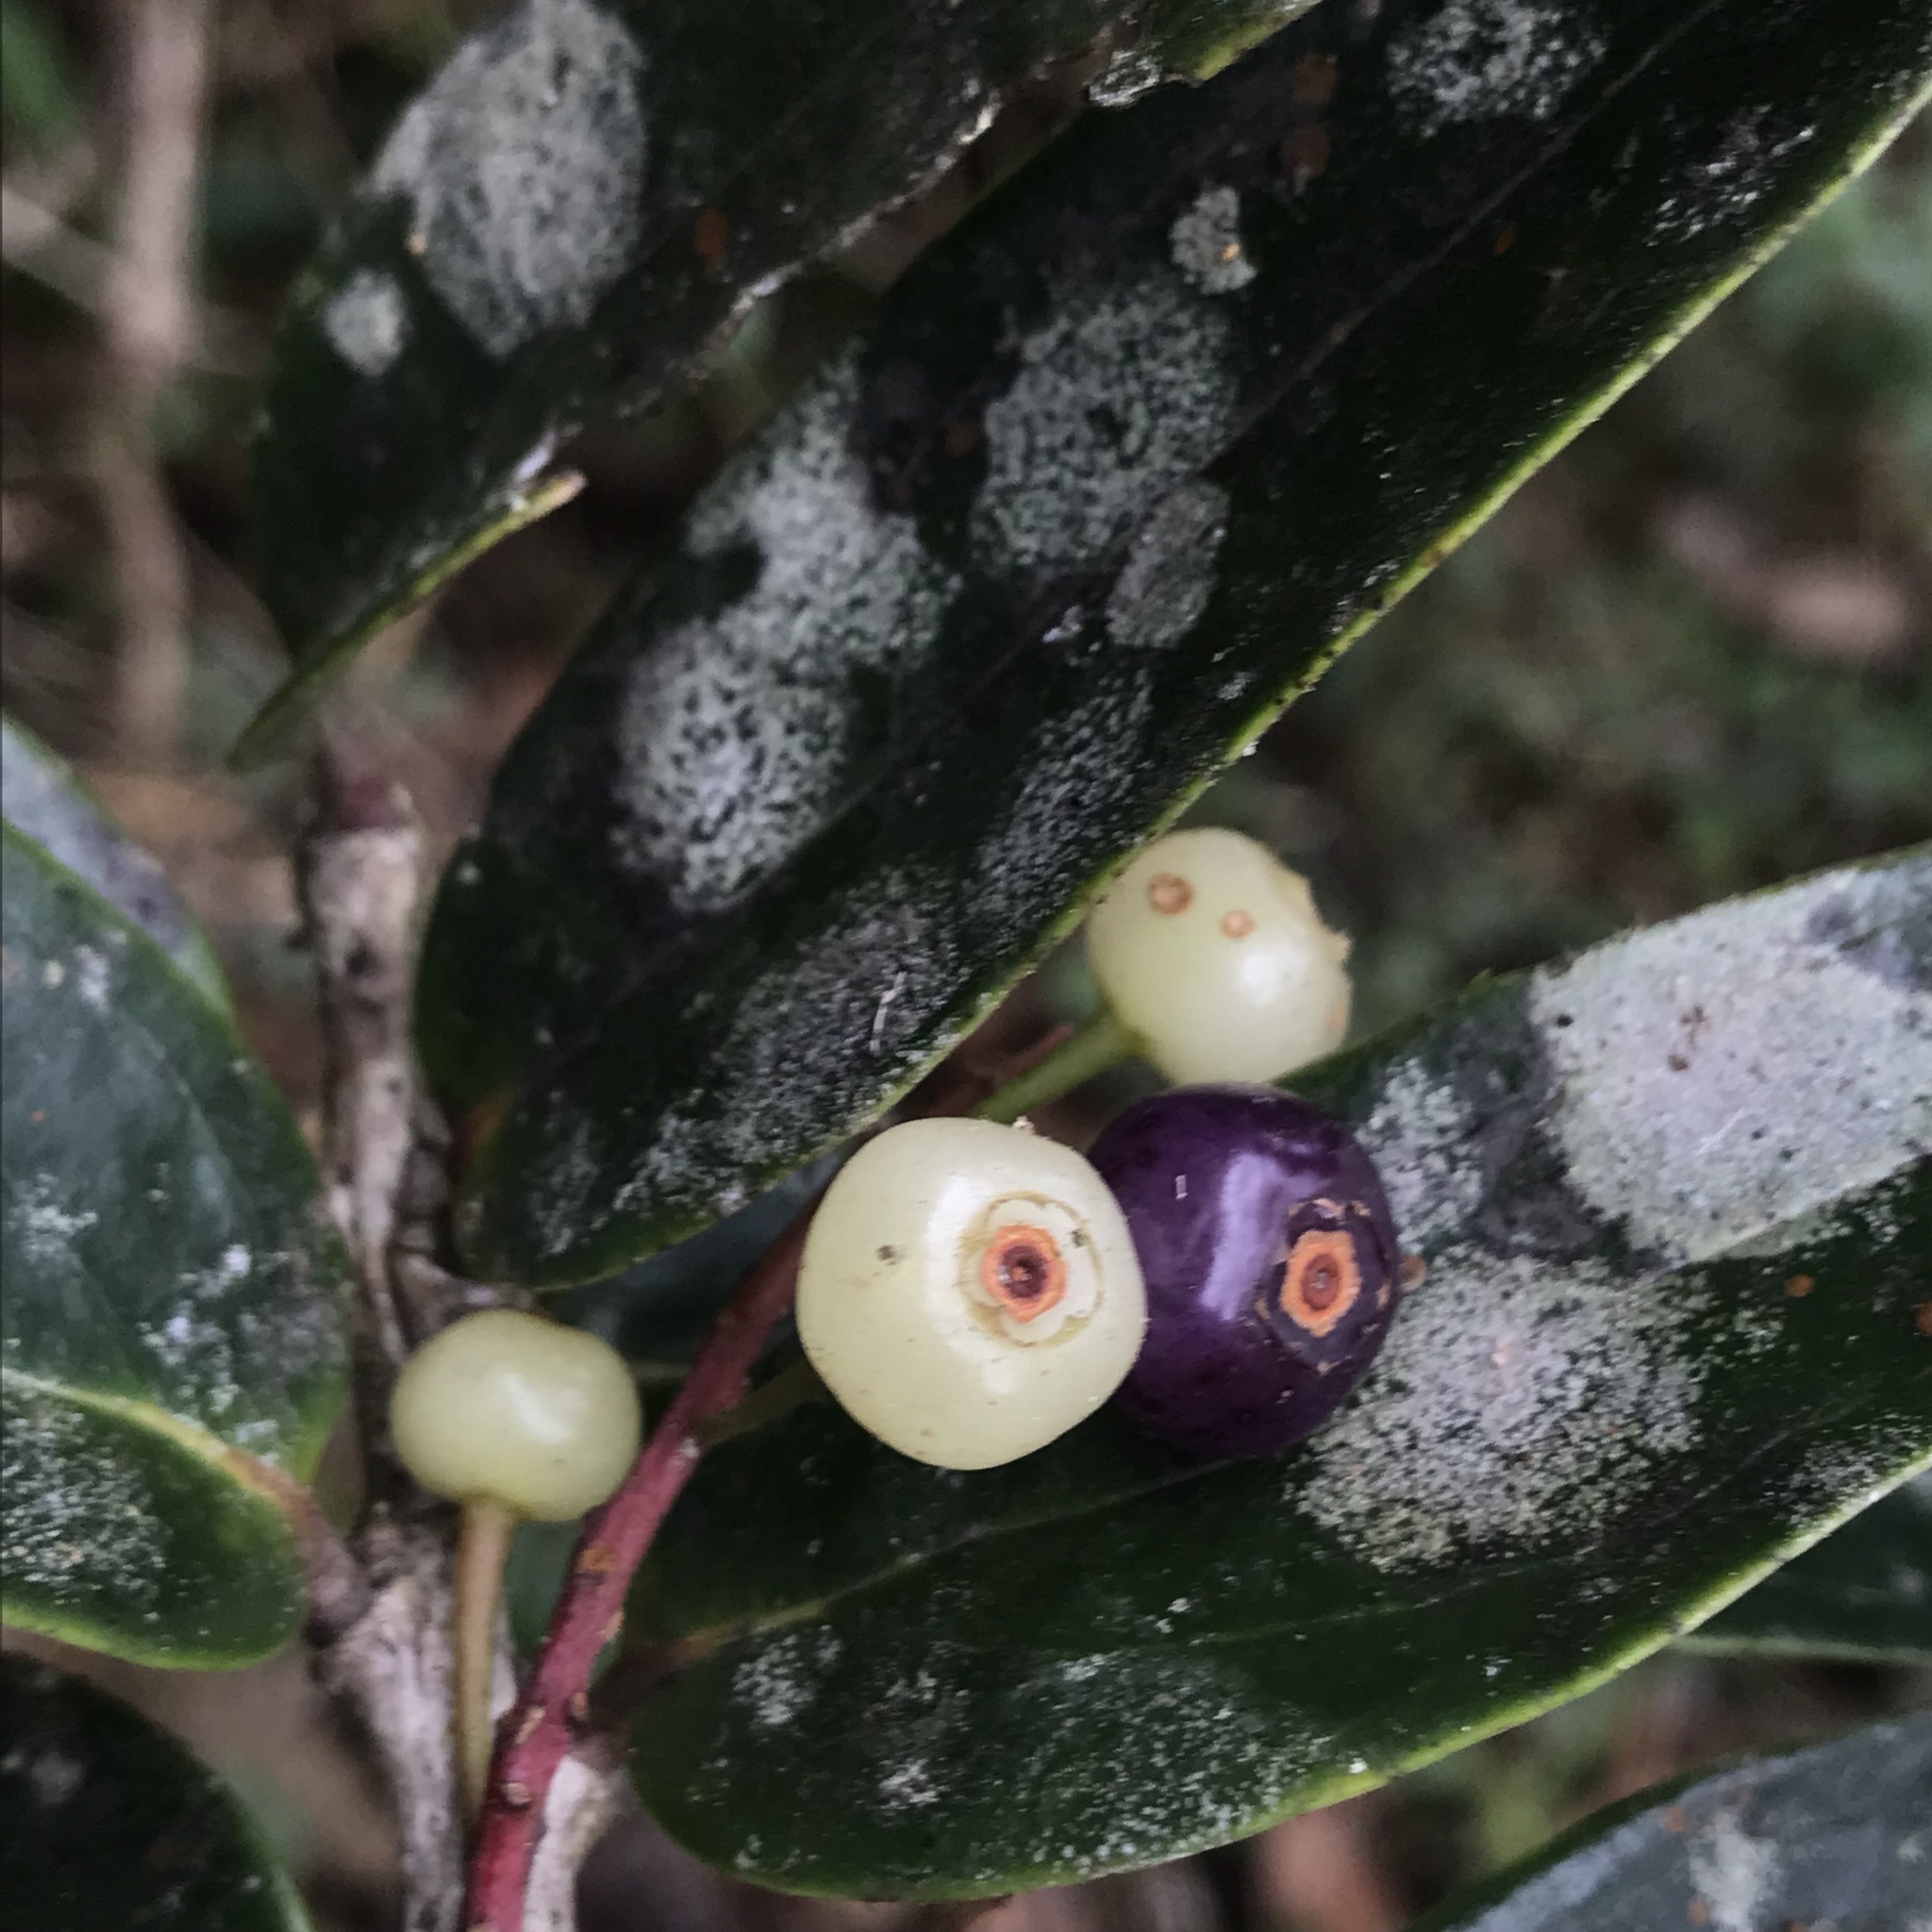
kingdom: Plantae
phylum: Tracheophyta
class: Magnoliopsida
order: Ericales
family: Ericaceae
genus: Thibaudia
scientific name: Thibaudia floribunda
